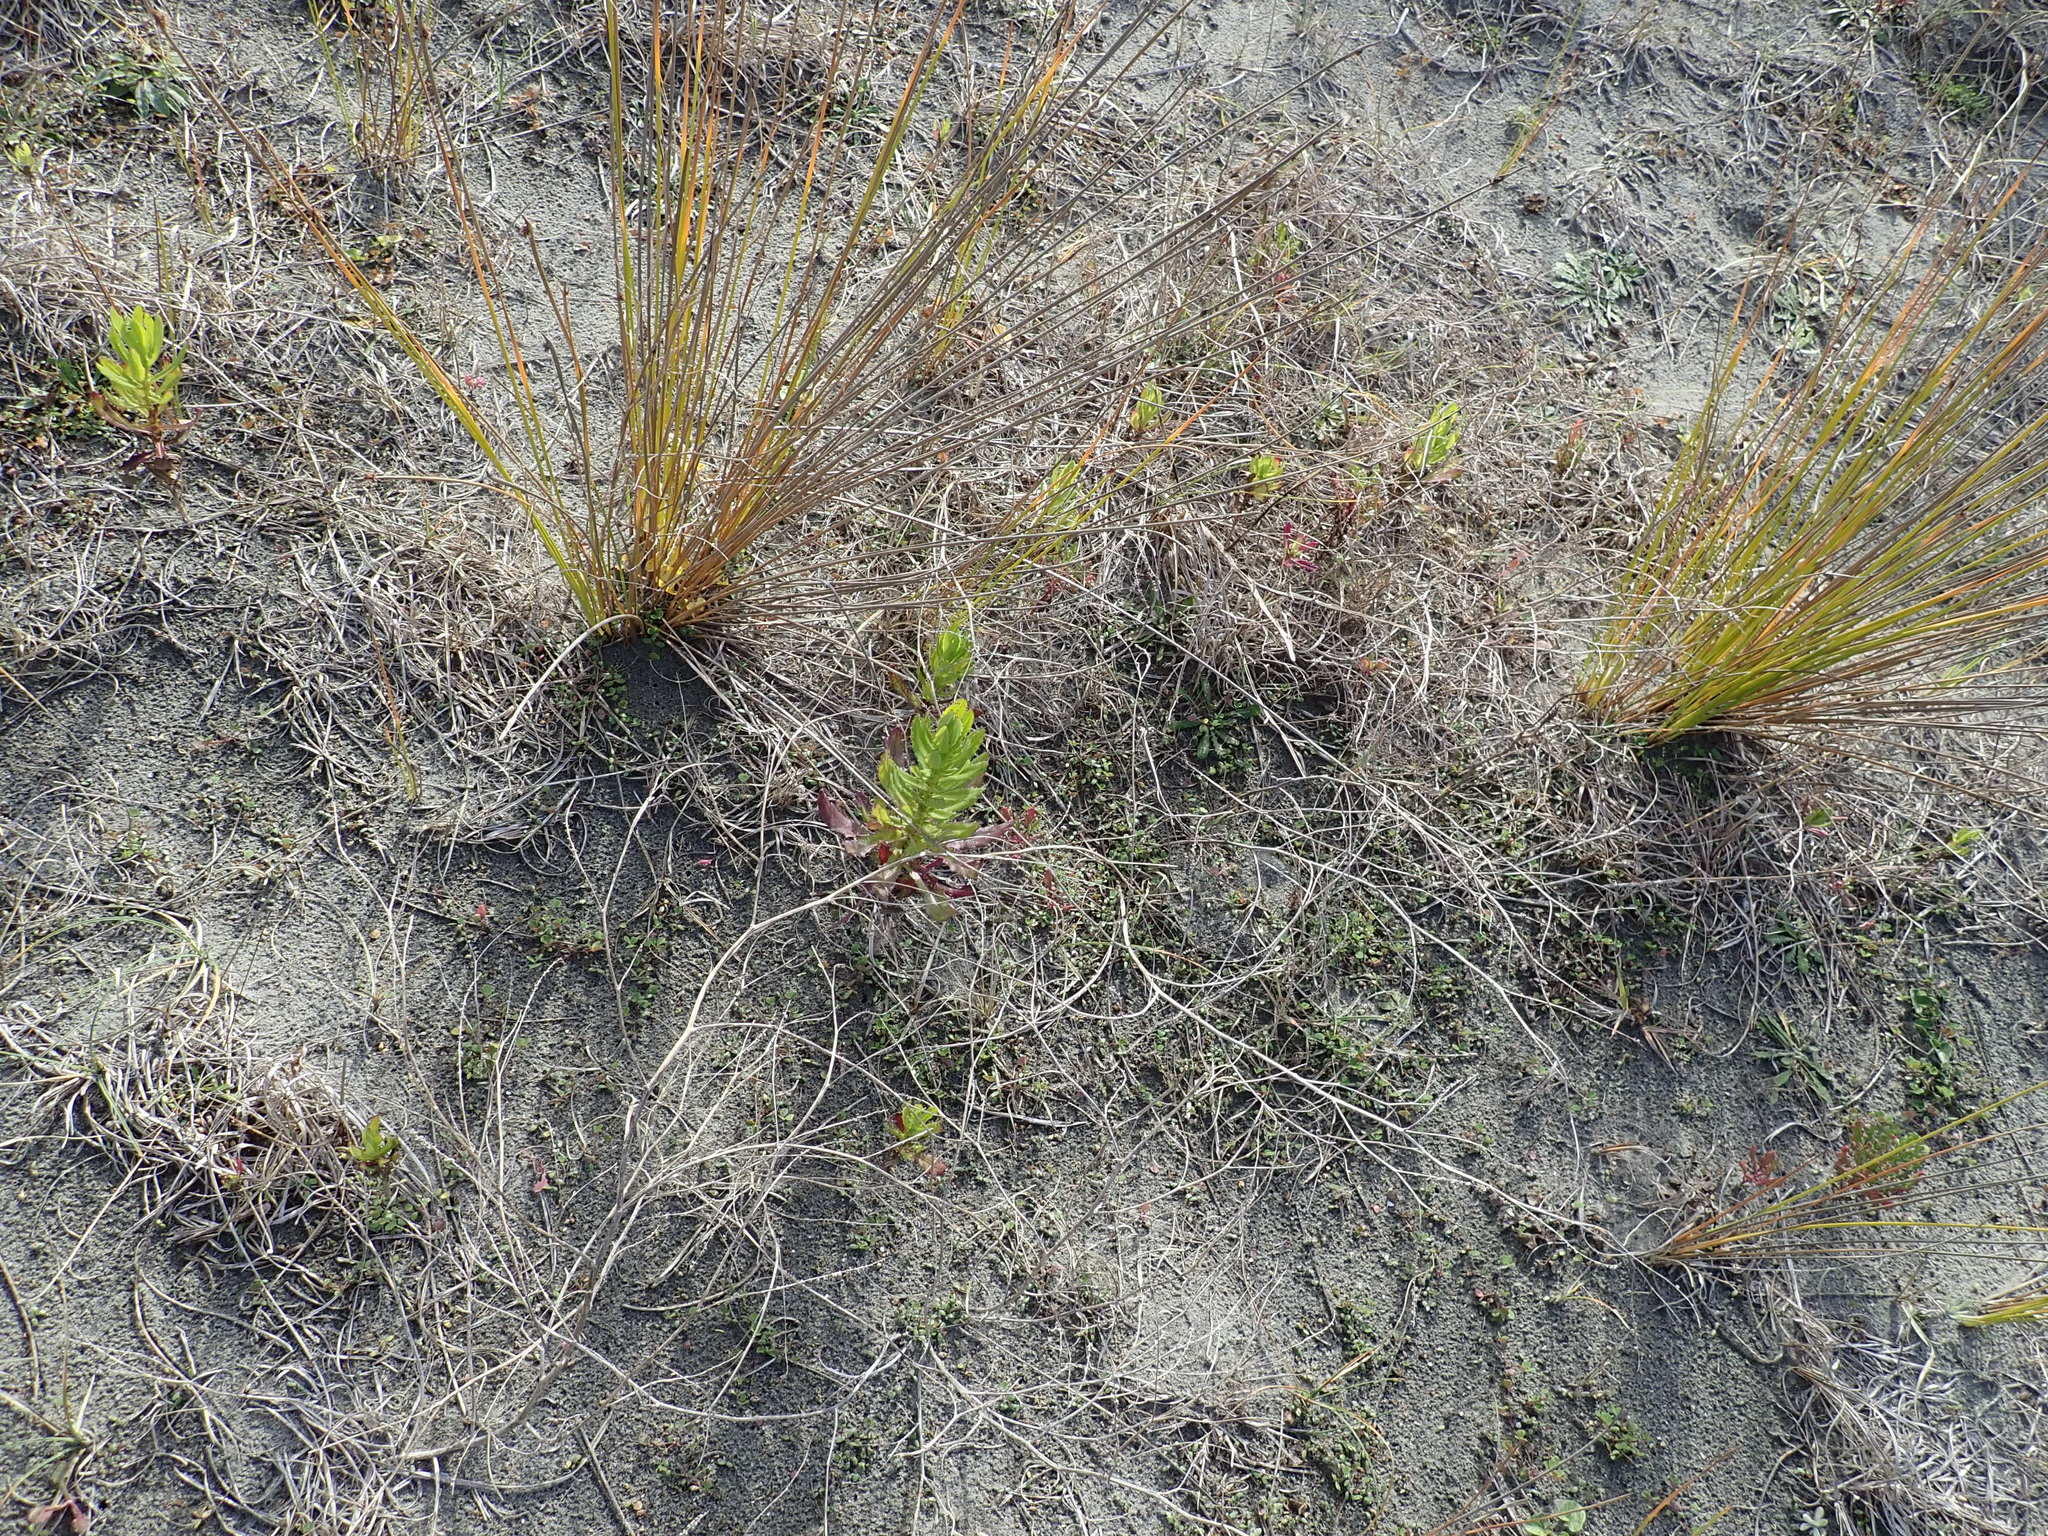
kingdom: Plantae
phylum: Tracheophyta
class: Magnoliopsida
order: Asterales
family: Asteraceae
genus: Senecio
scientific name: Senecio glastifolius
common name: Woad-leaved ragwort
